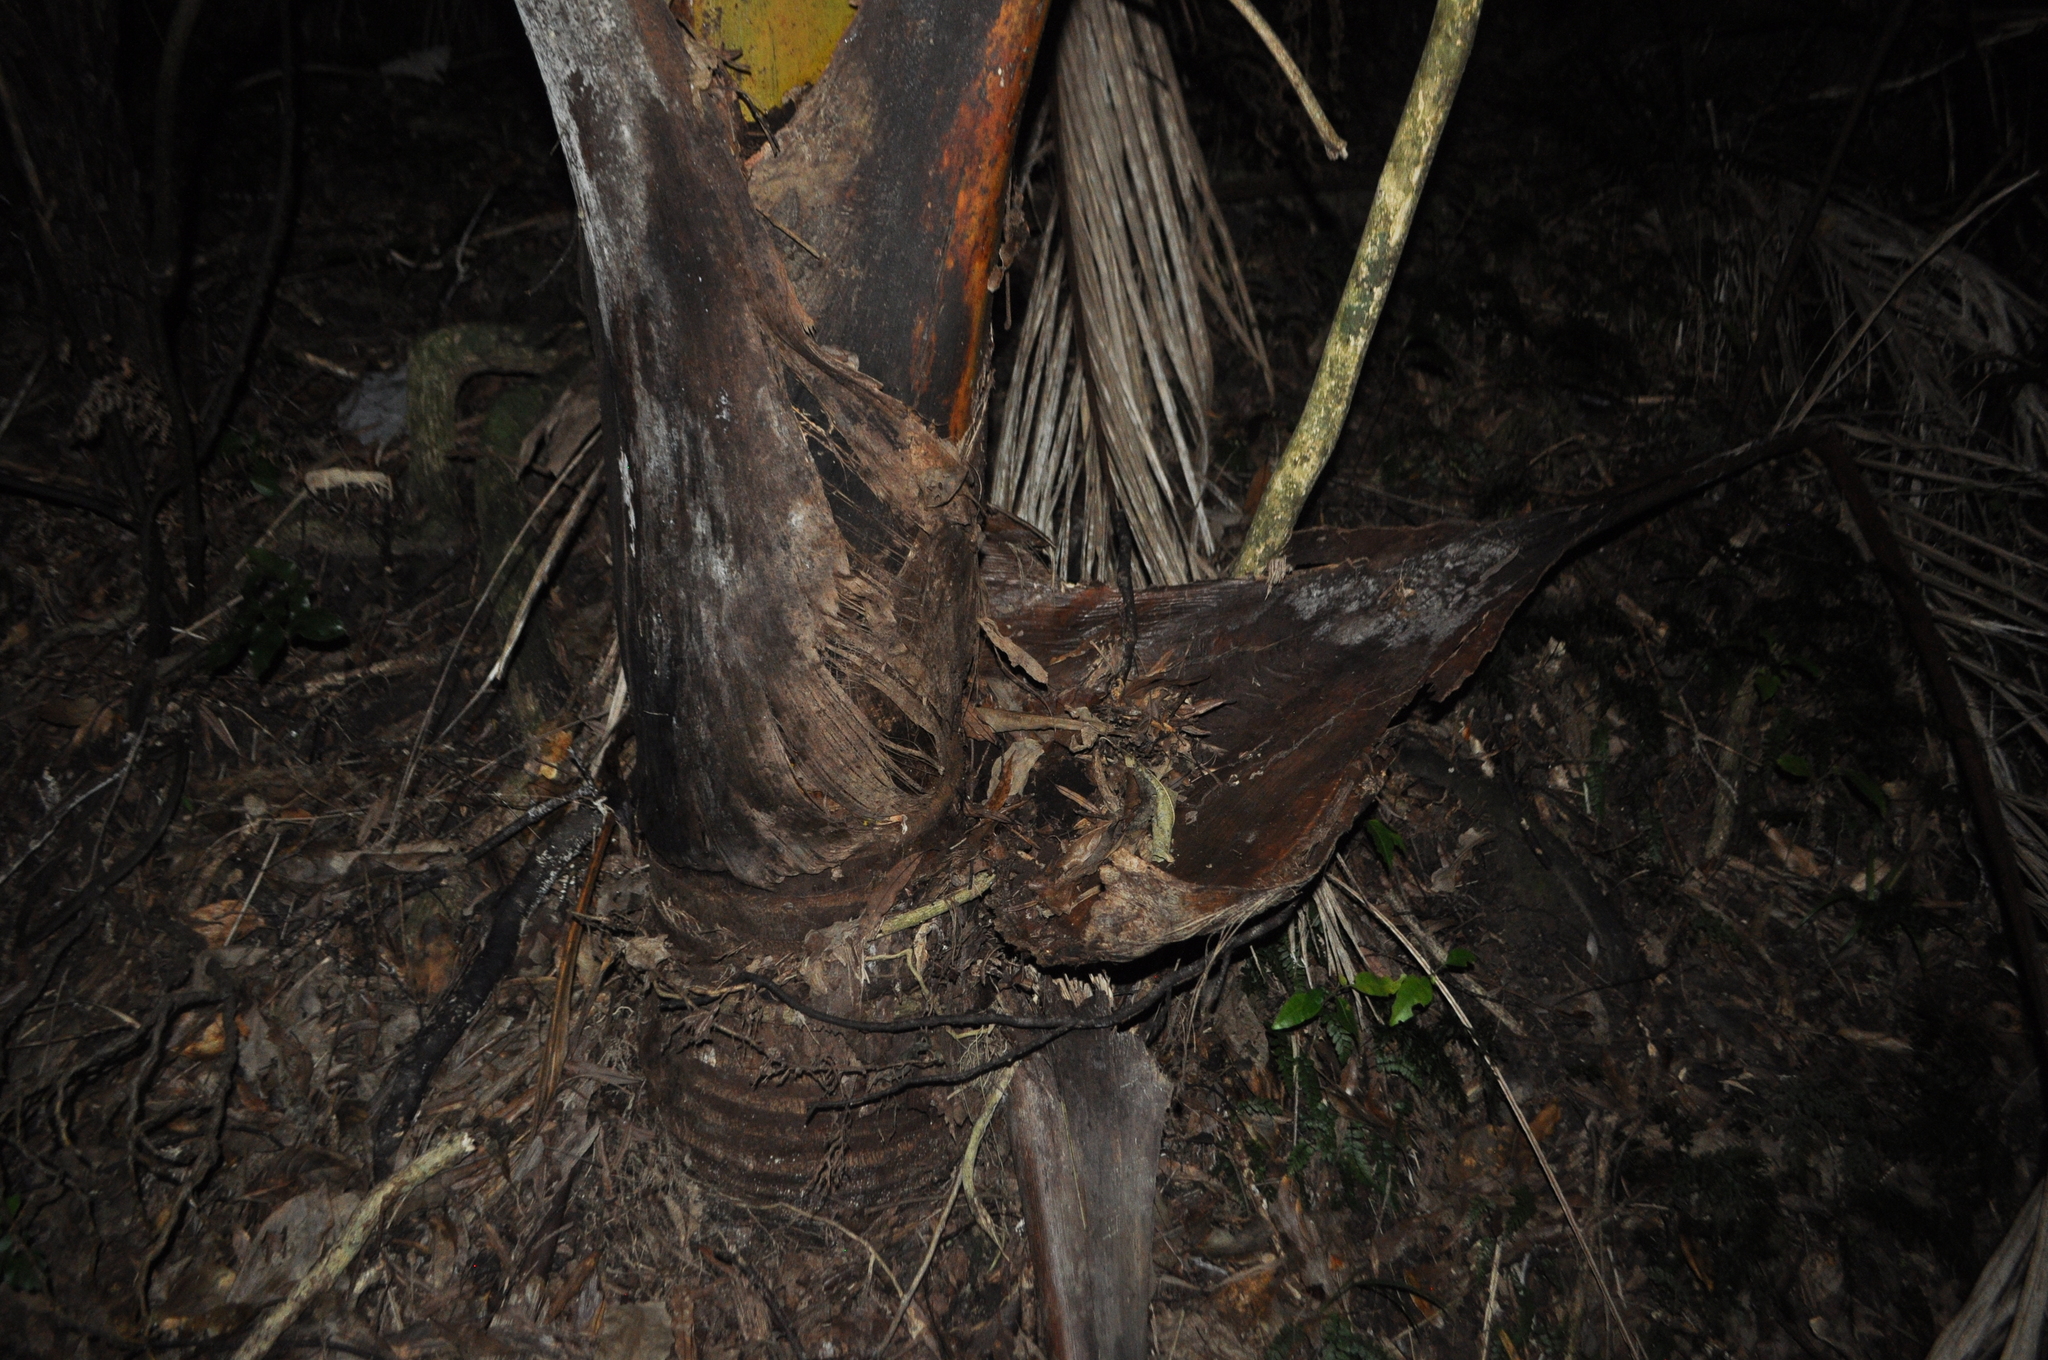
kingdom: Plantae
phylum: Tracheophyta
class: Liliopsida
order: Arecales
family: Arecaceae
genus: Rhopalostylis
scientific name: Rhopalostylis sapida
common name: Feather-duster palm
